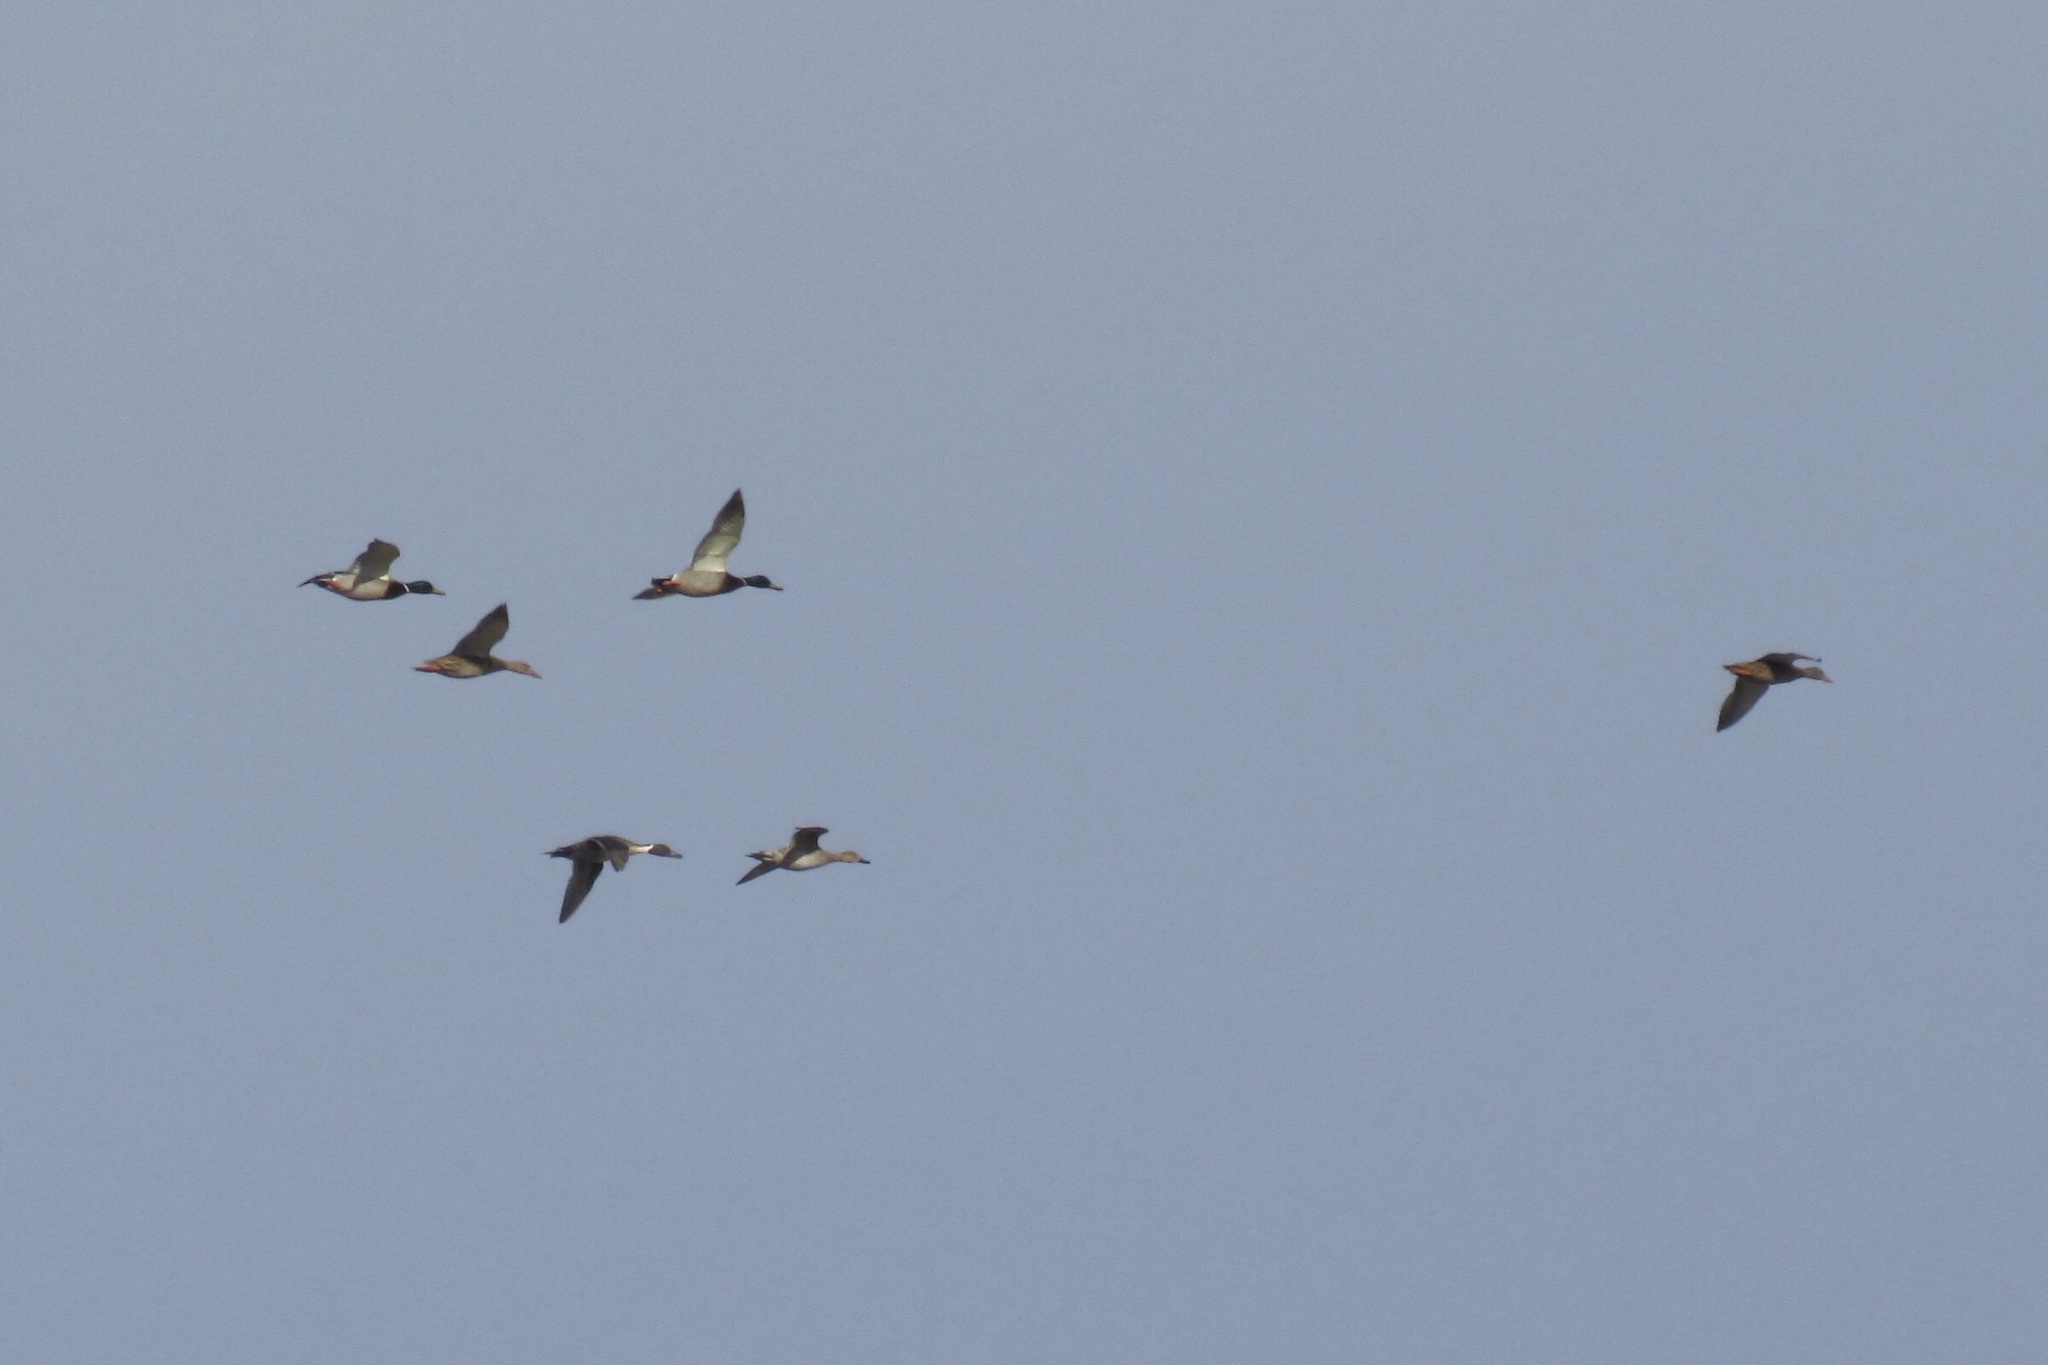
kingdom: Animalia
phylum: Chordata
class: Aves
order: Anseriformes
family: Anatidae
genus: Anas
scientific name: Anas platyrhynchos
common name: Mallard
